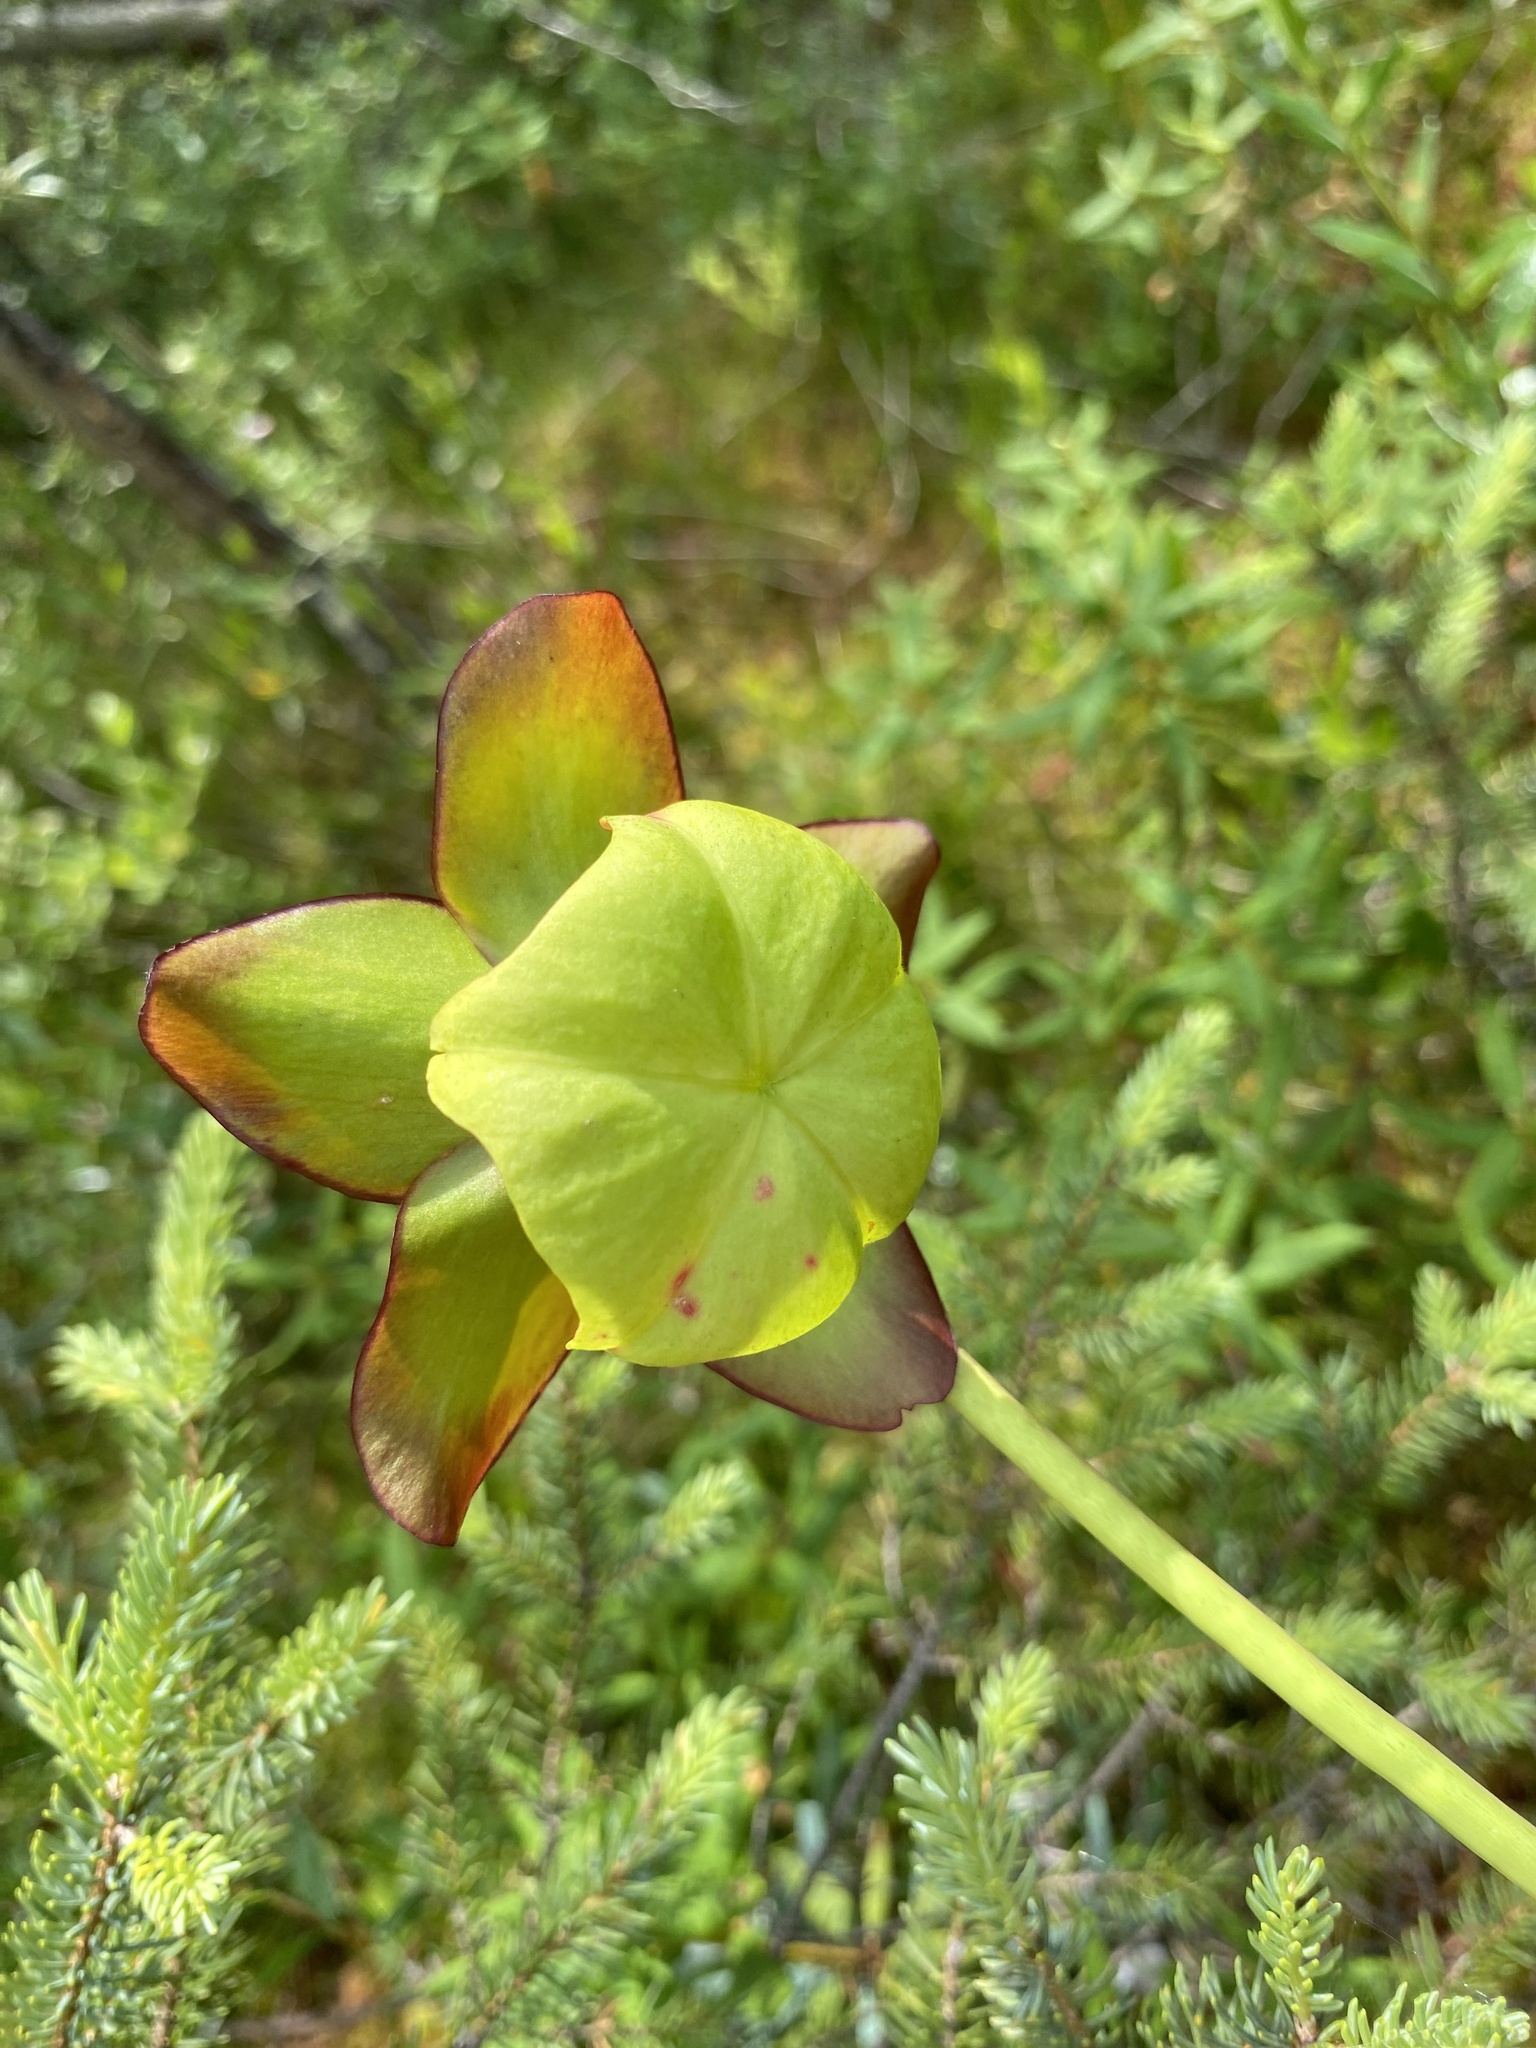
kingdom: Plantae
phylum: Tracheophyta
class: Magnoliopsida
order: Ericales
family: Sarraceniaceae
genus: Sarracenia
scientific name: Sarracenia purpurea
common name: Pitcherplant
